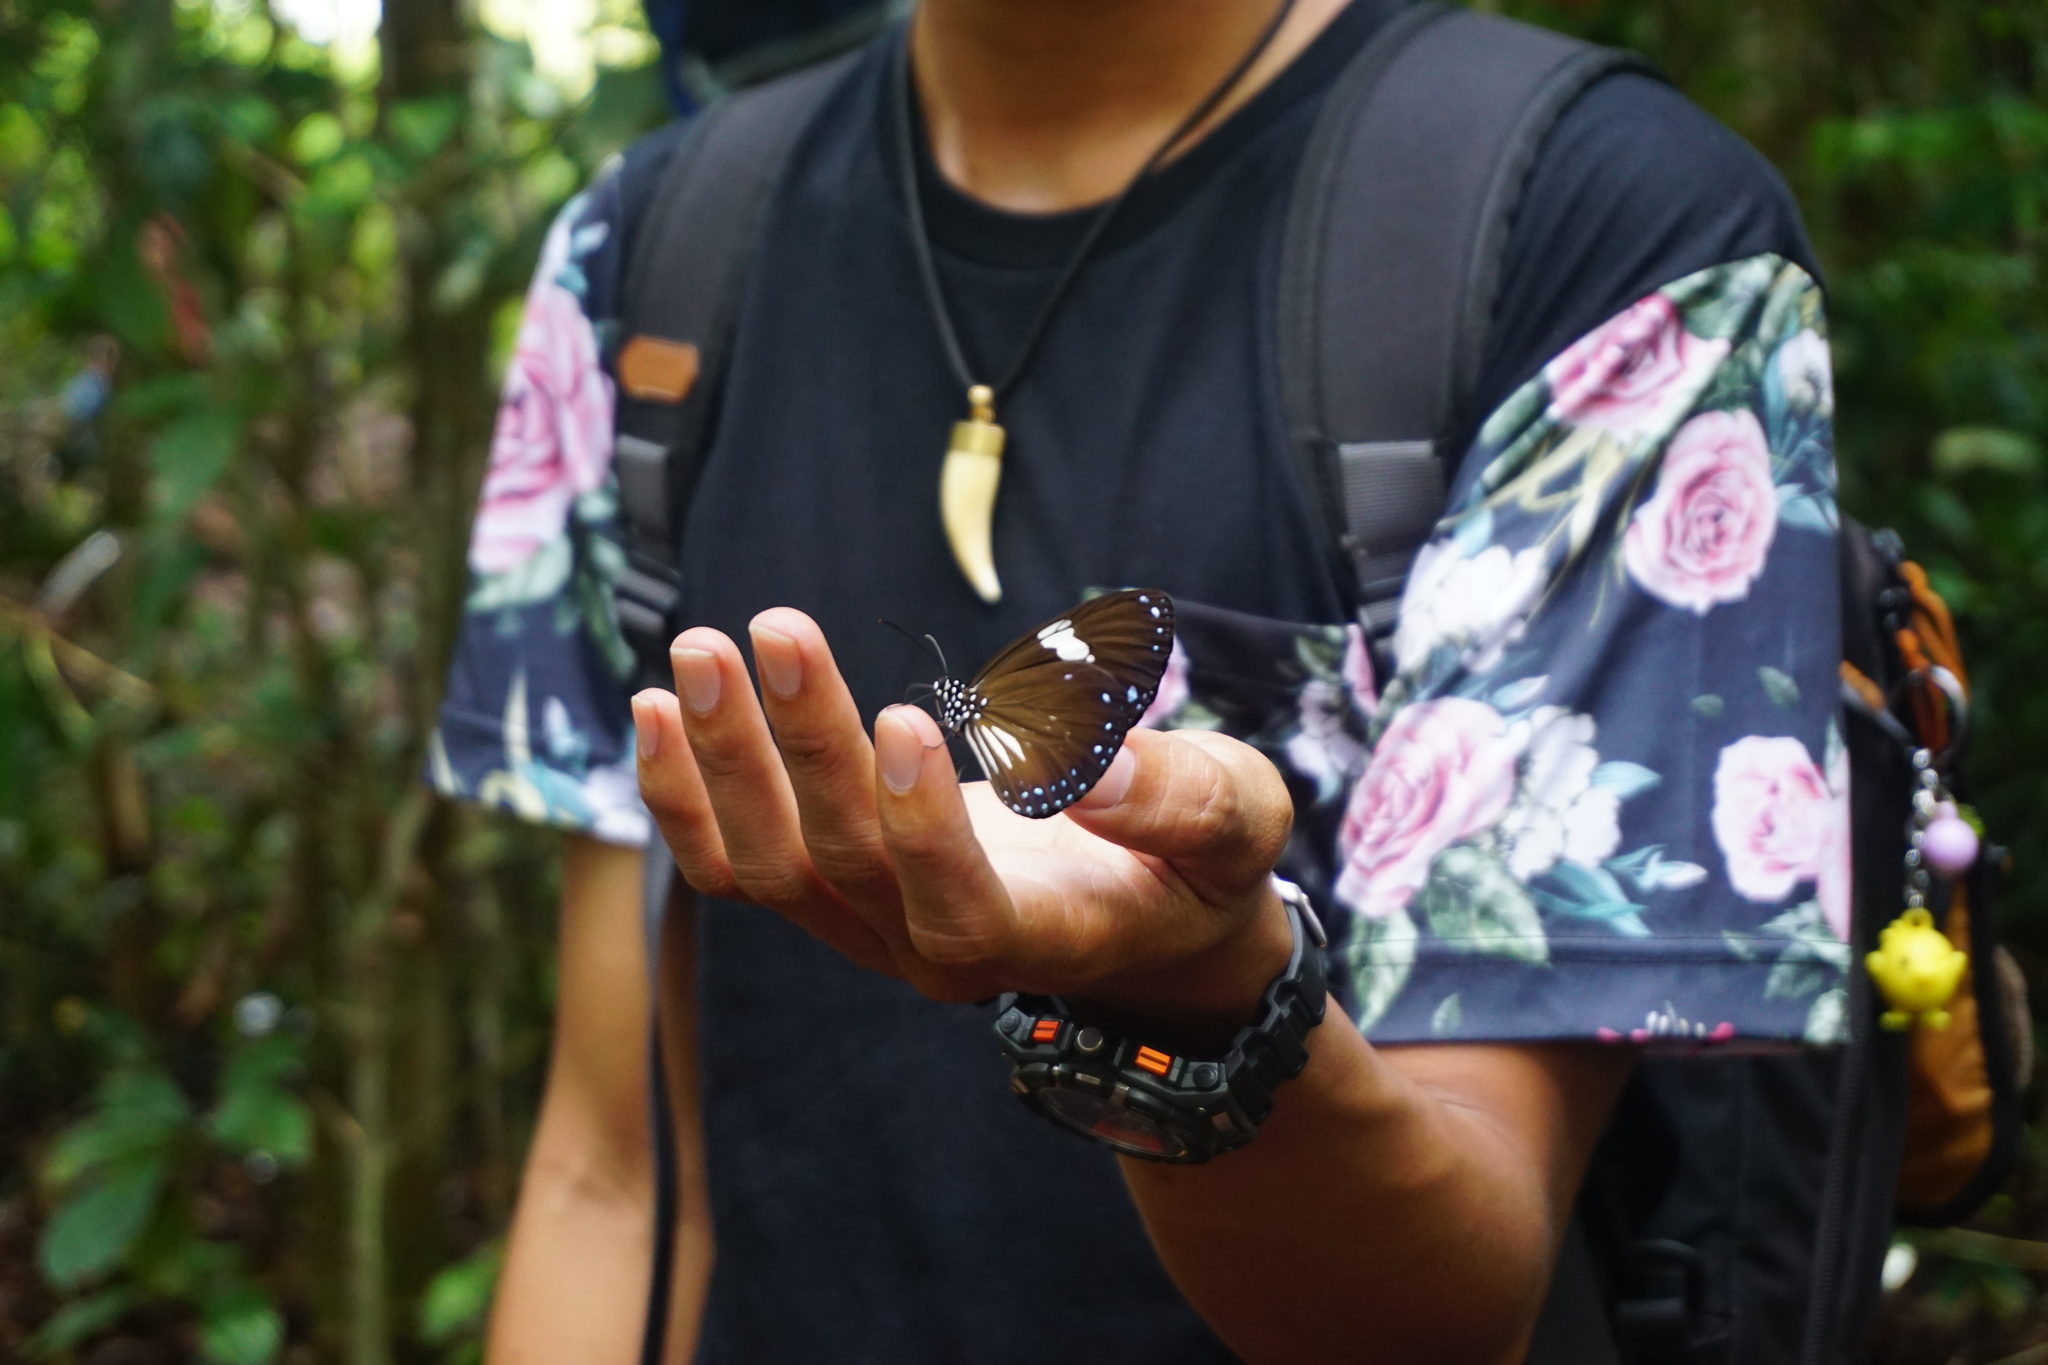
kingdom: Animalia
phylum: Arthropoda
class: Insecta
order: Lepidoptera
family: Nymphalidae
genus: Euploea
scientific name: Euploea radamanthus
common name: Magpie crow butterfly
